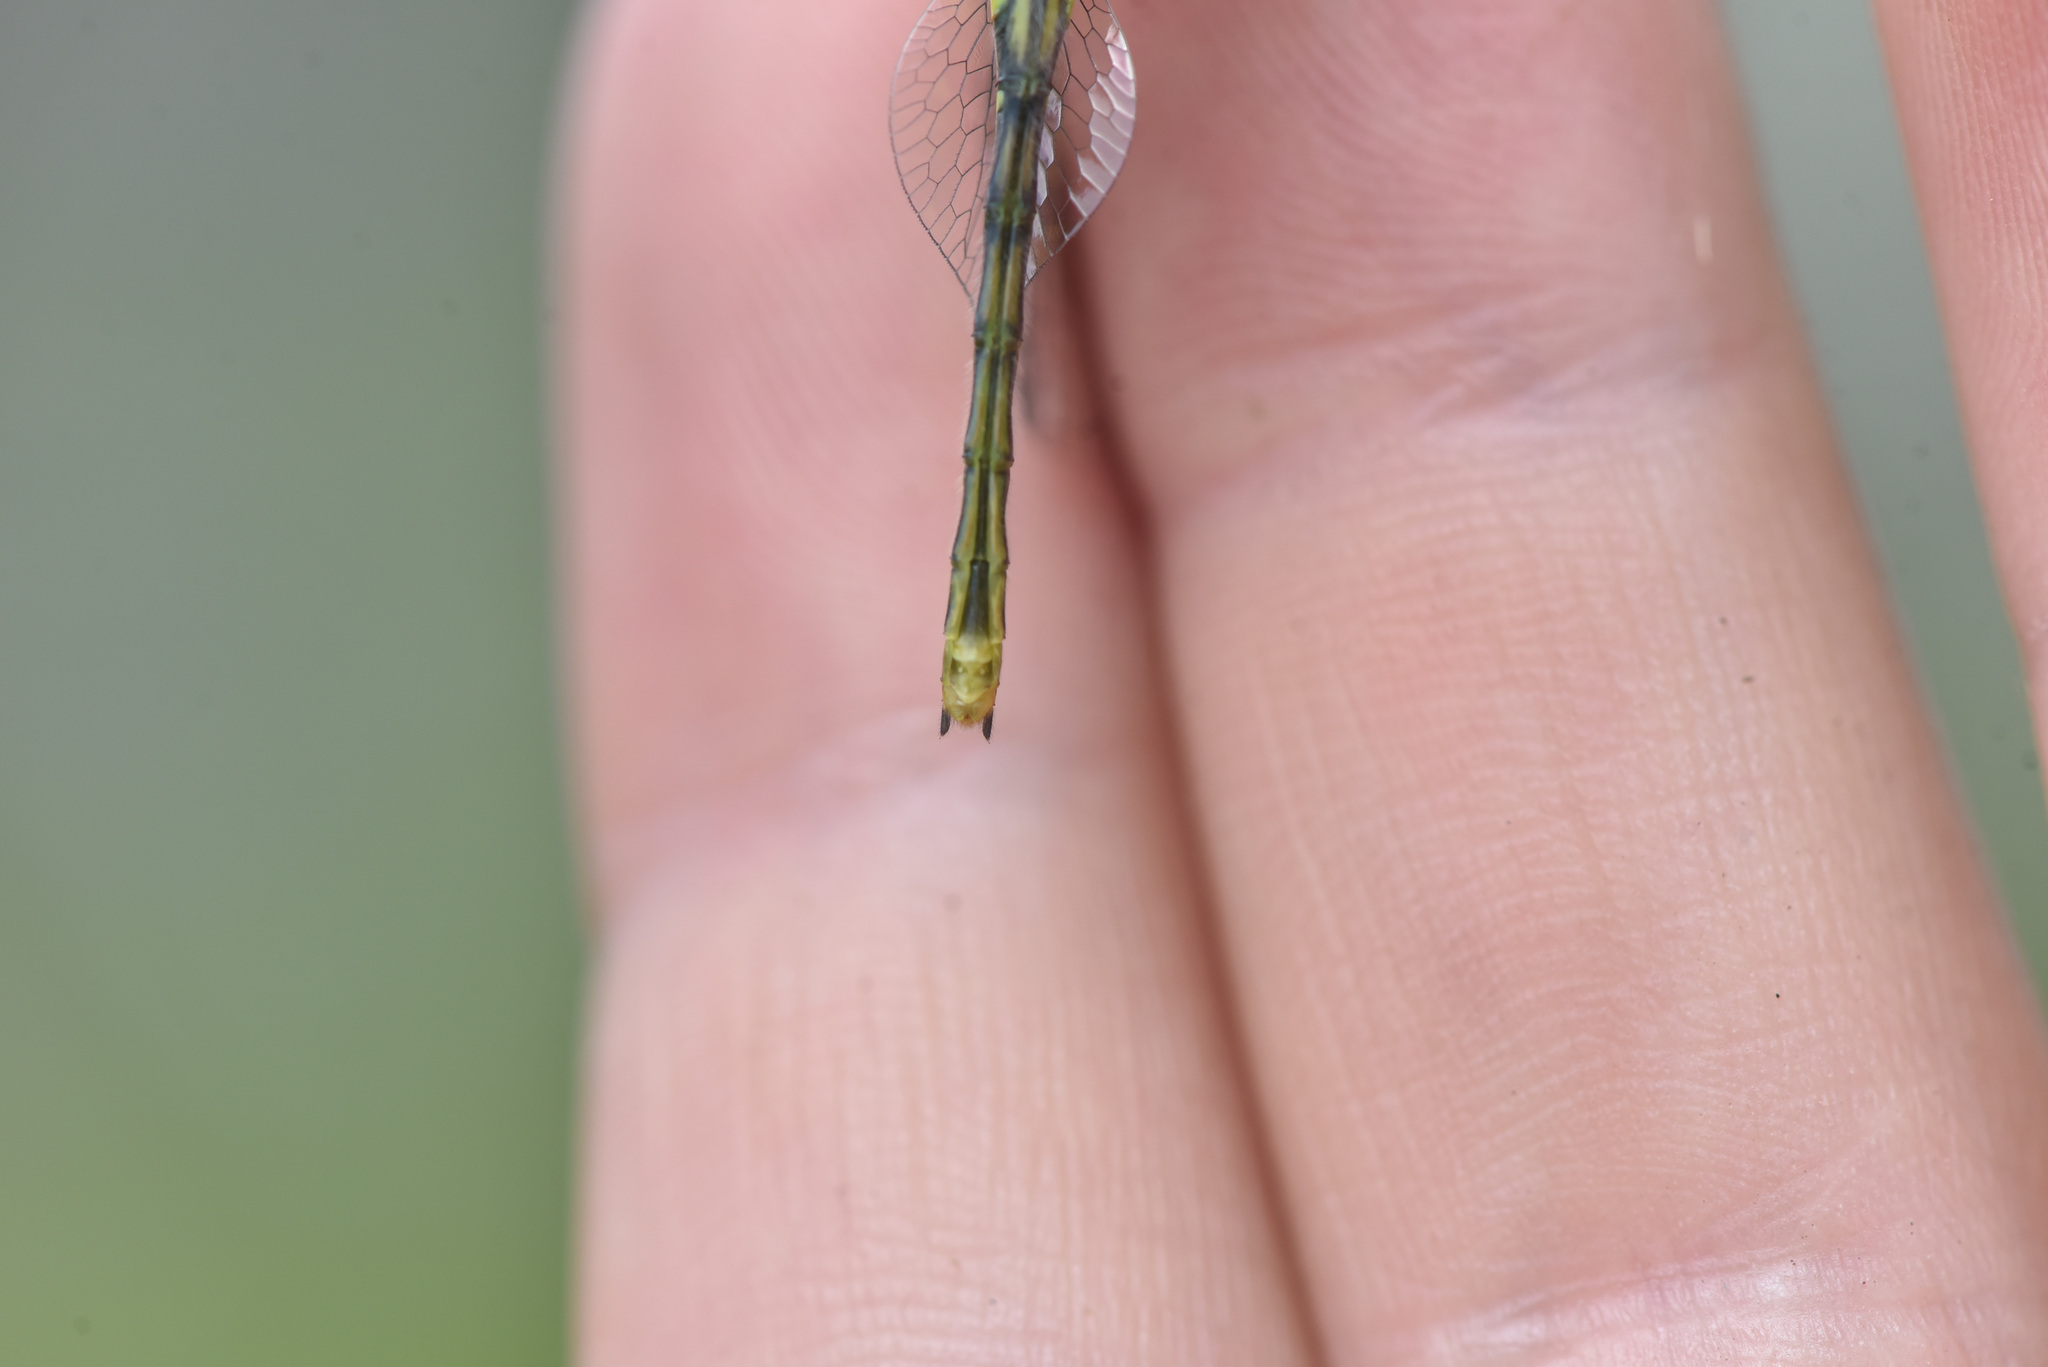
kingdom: Animalia
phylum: Arthropoda
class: Insecta
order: Odonata
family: Libellulidae
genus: Sympetrum
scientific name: Sympetrum danae
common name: Black darter
